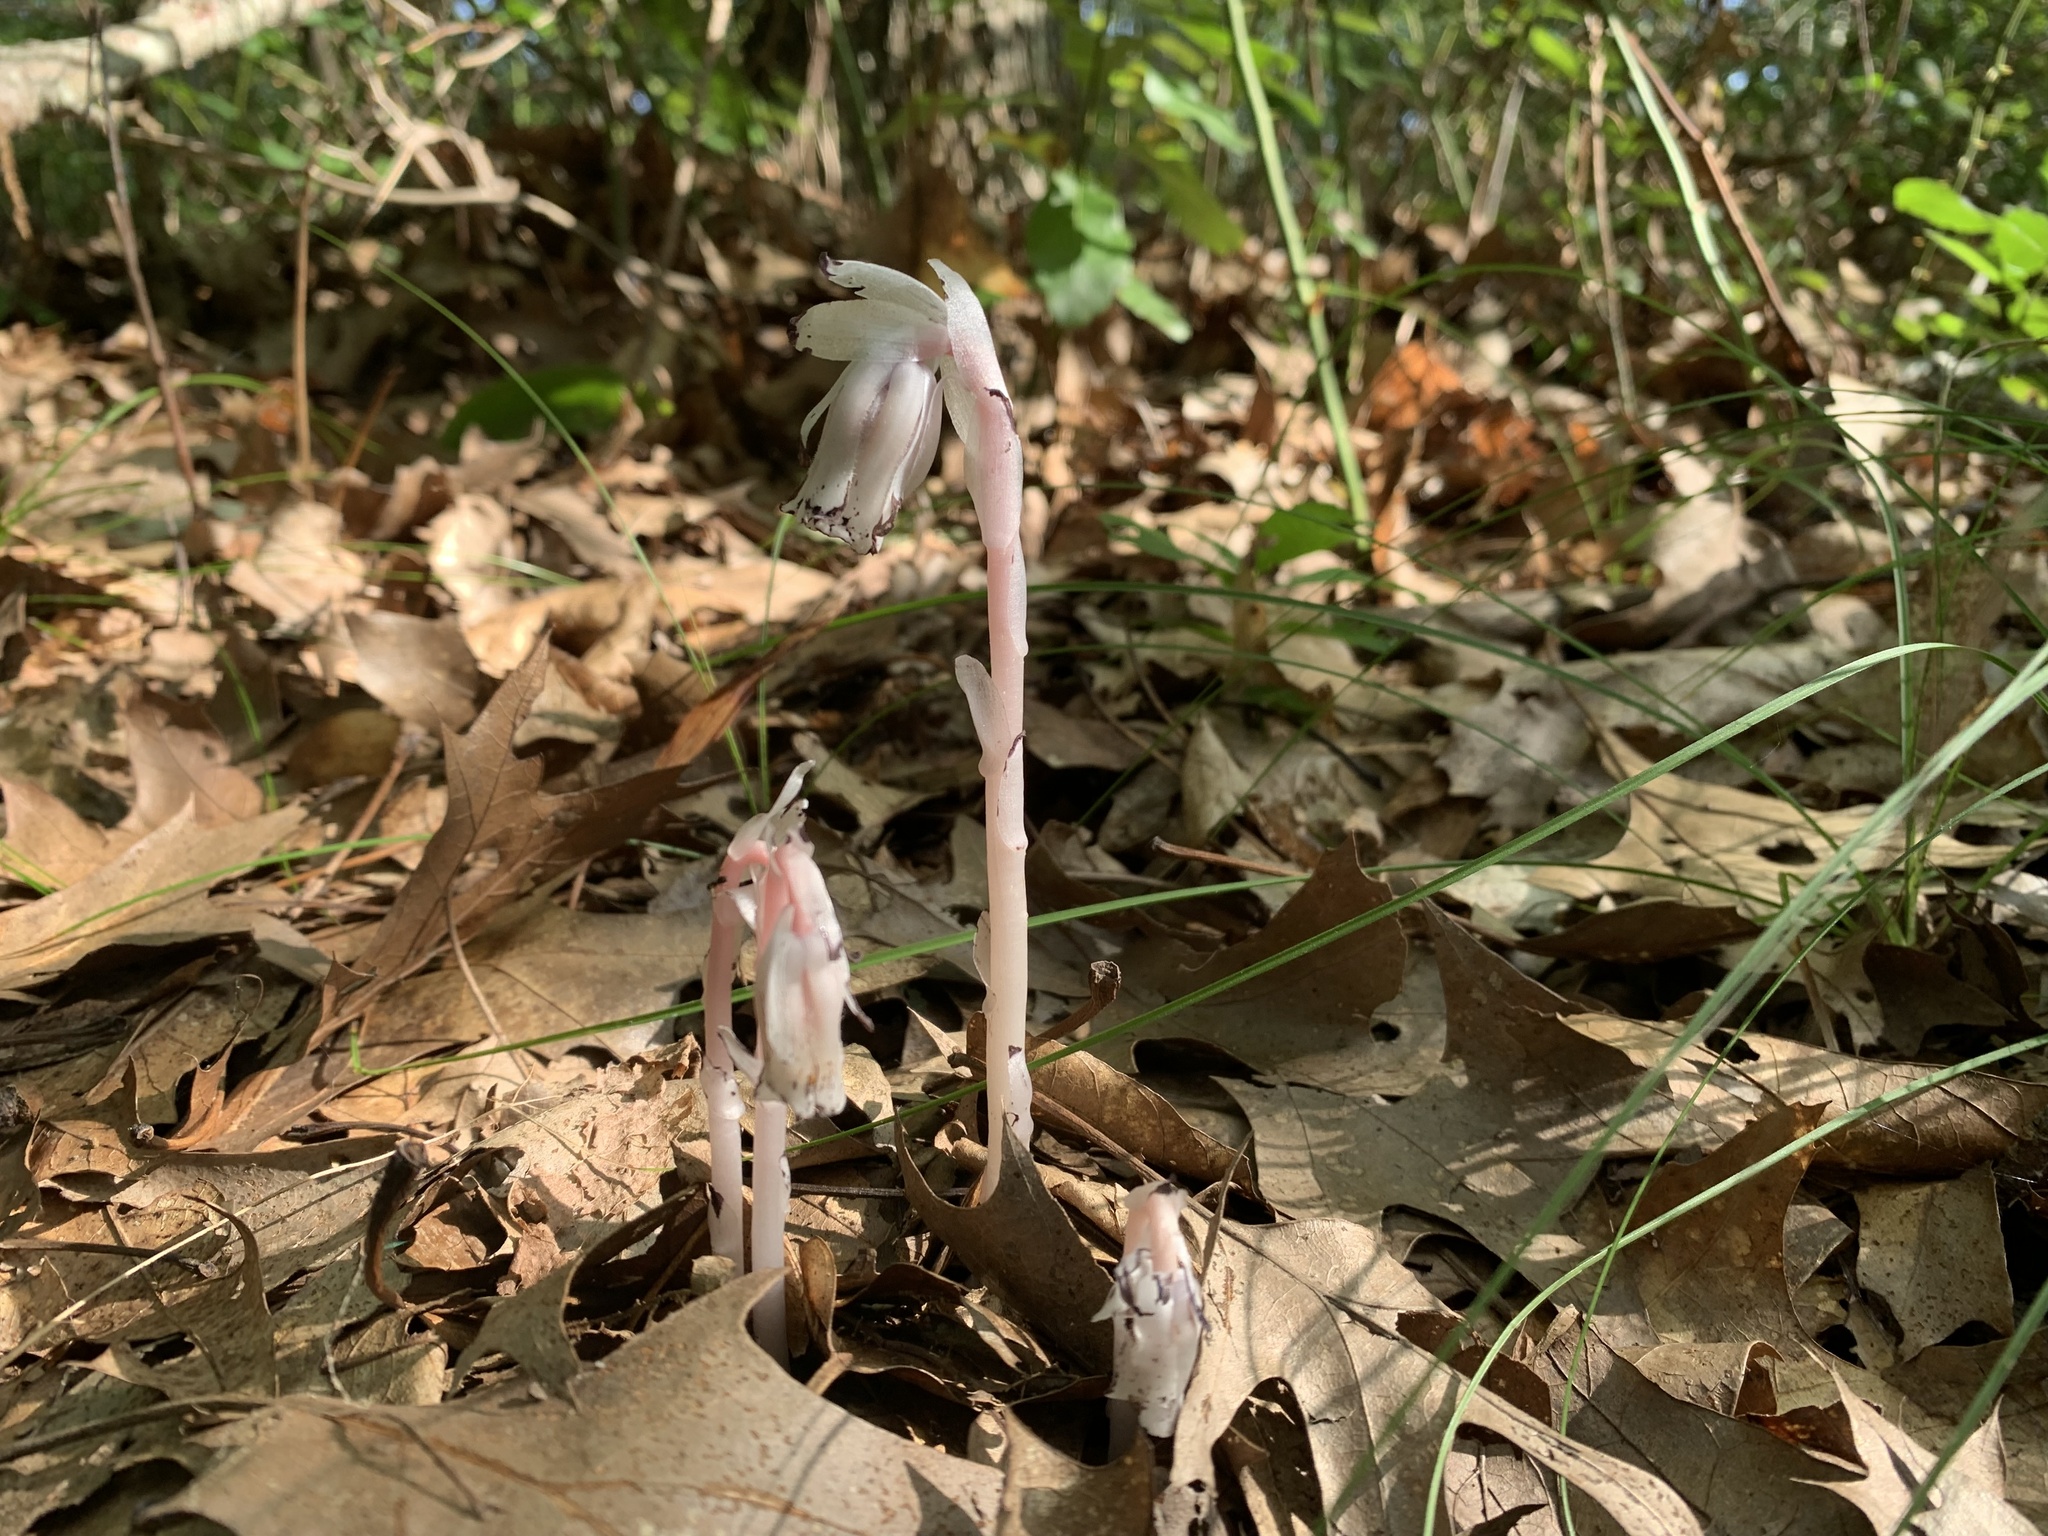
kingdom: Plantae
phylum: Tracheophyta
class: Magnoliopsida
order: Ericales
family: Ericaceae
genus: Monotropa
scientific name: Monotropa uniflora
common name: Convulsion root
